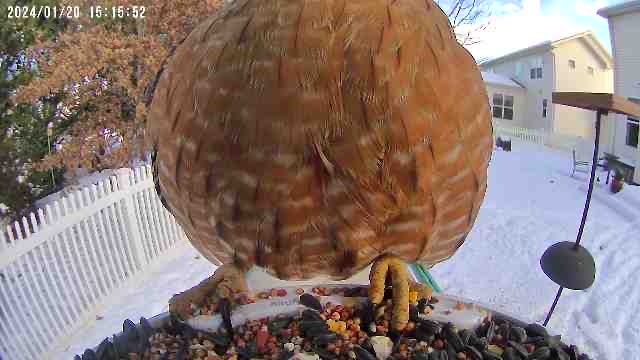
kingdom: Animalia
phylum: Chordata
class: Aves
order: Accipitriformes
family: Accipitridae
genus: Buteo
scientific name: Buteo lineatus
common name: Red-shouldered hawk
